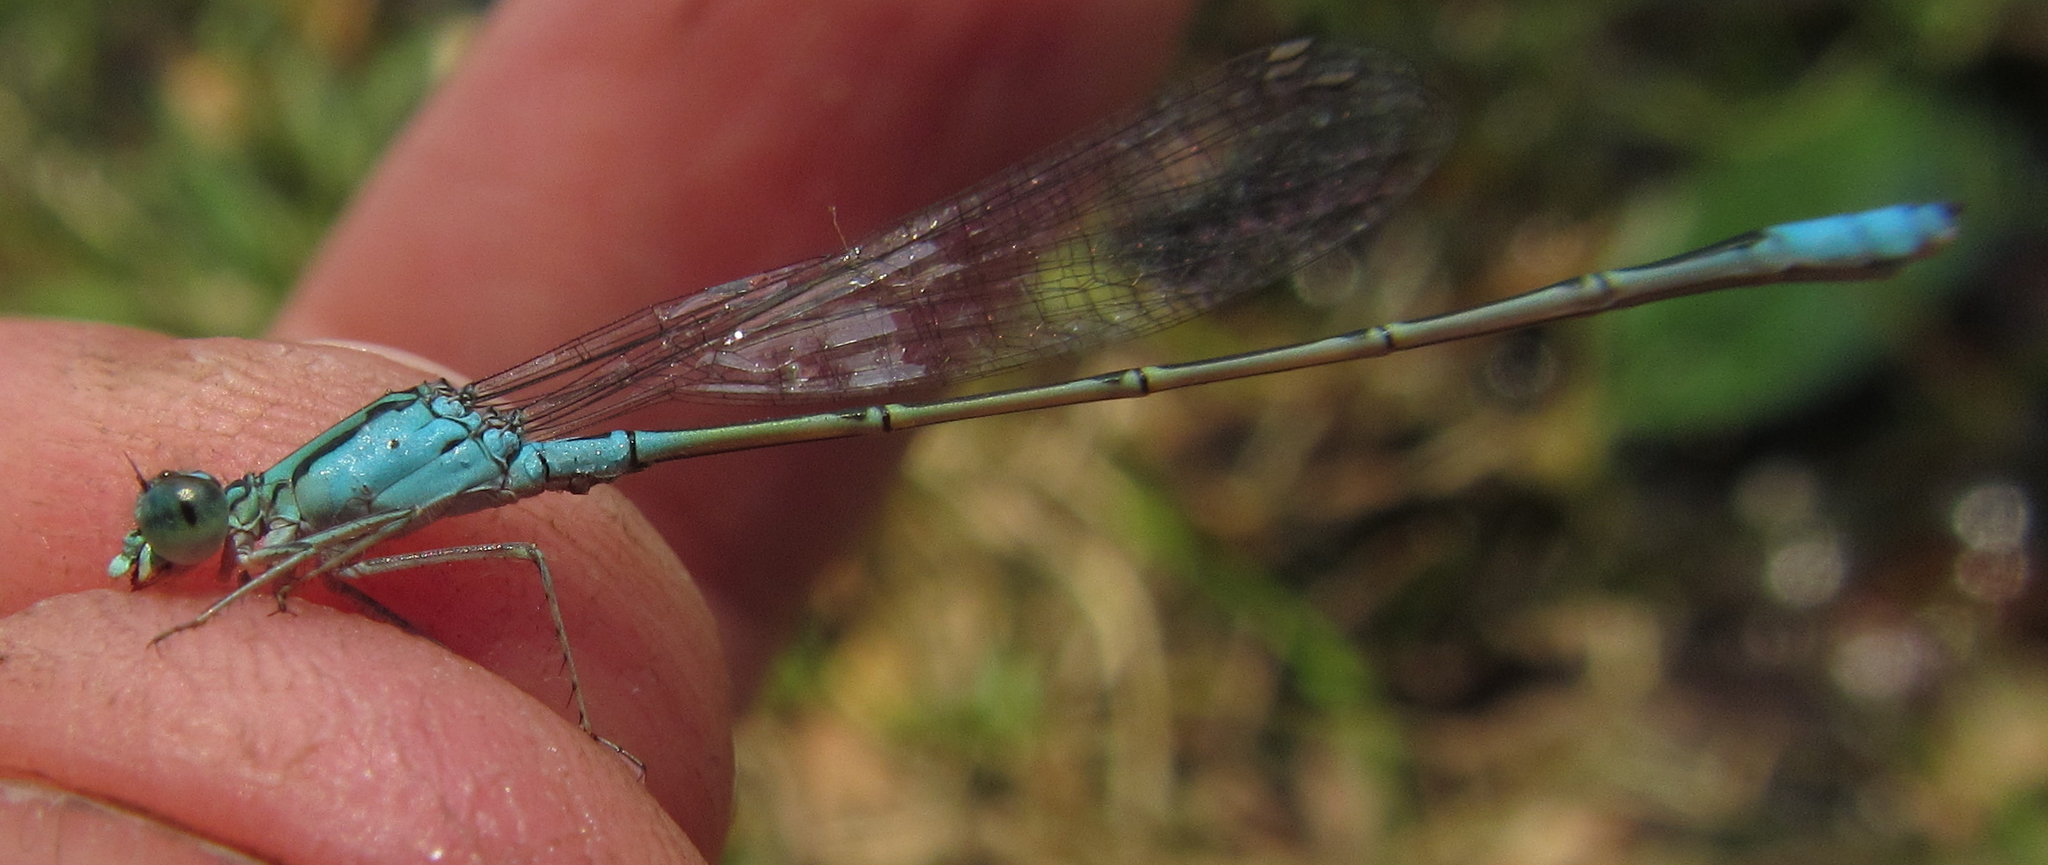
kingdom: Animalia
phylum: Arthropoda
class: Insecta
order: Odonata
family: Coenagrionidae
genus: Pseudagrion
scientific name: Pseudagrion coeleste
